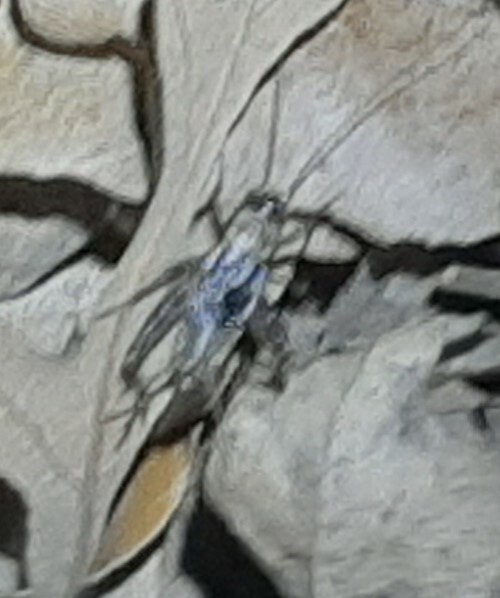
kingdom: Animalia
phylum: Arthropoda
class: Insecta
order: Orthoptera
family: Trigonidiidae
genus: Nemobius
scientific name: Nemobius sylvestris
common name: Wood-cricket
